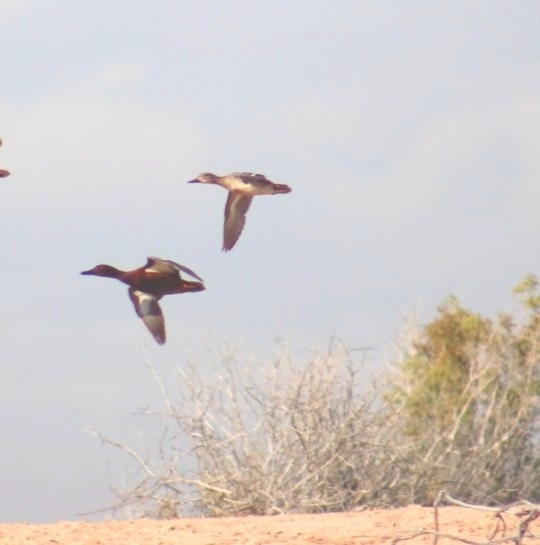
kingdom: Animalia
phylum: Chordata
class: Aves
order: Anseriformes
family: Anatidae
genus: Spatula
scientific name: Spatula cyanoptera
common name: Cinnamon teal
